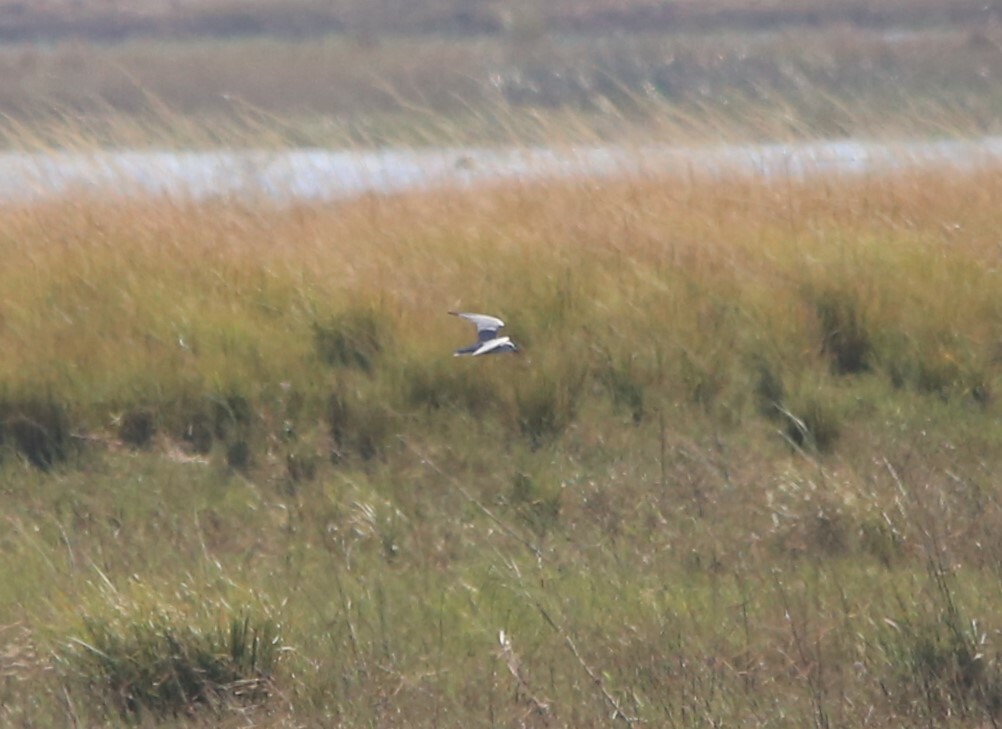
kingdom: Animalia
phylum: Chordata
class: Aves
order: Charadriiformes
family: Laridae
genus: Chlidonias
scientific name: Chlidonias hybrida
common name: Whiskered tern
